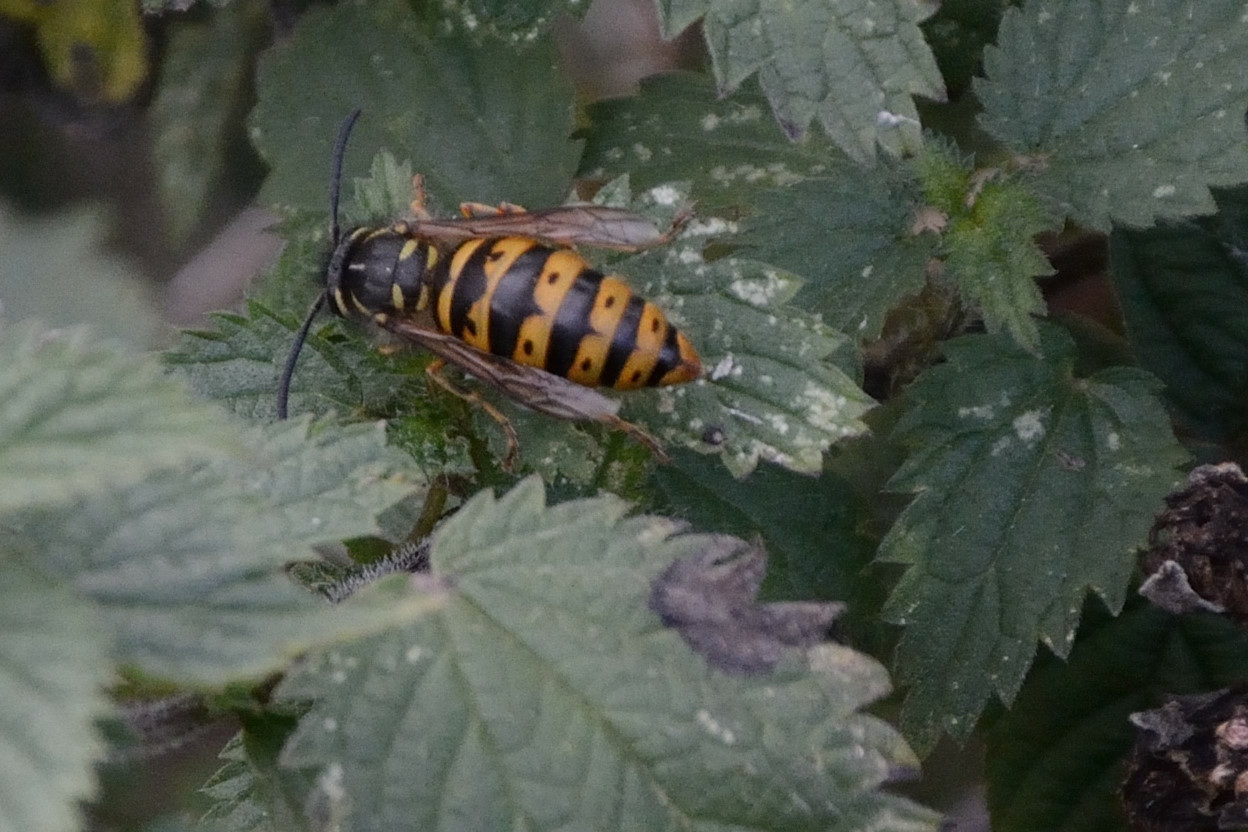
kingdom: Animalia
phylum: Arthropoda
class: Insecta
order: Hymenoptera
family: Vespidae
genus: Vespula
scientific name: Vespula vulgaris
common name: Common wasp
